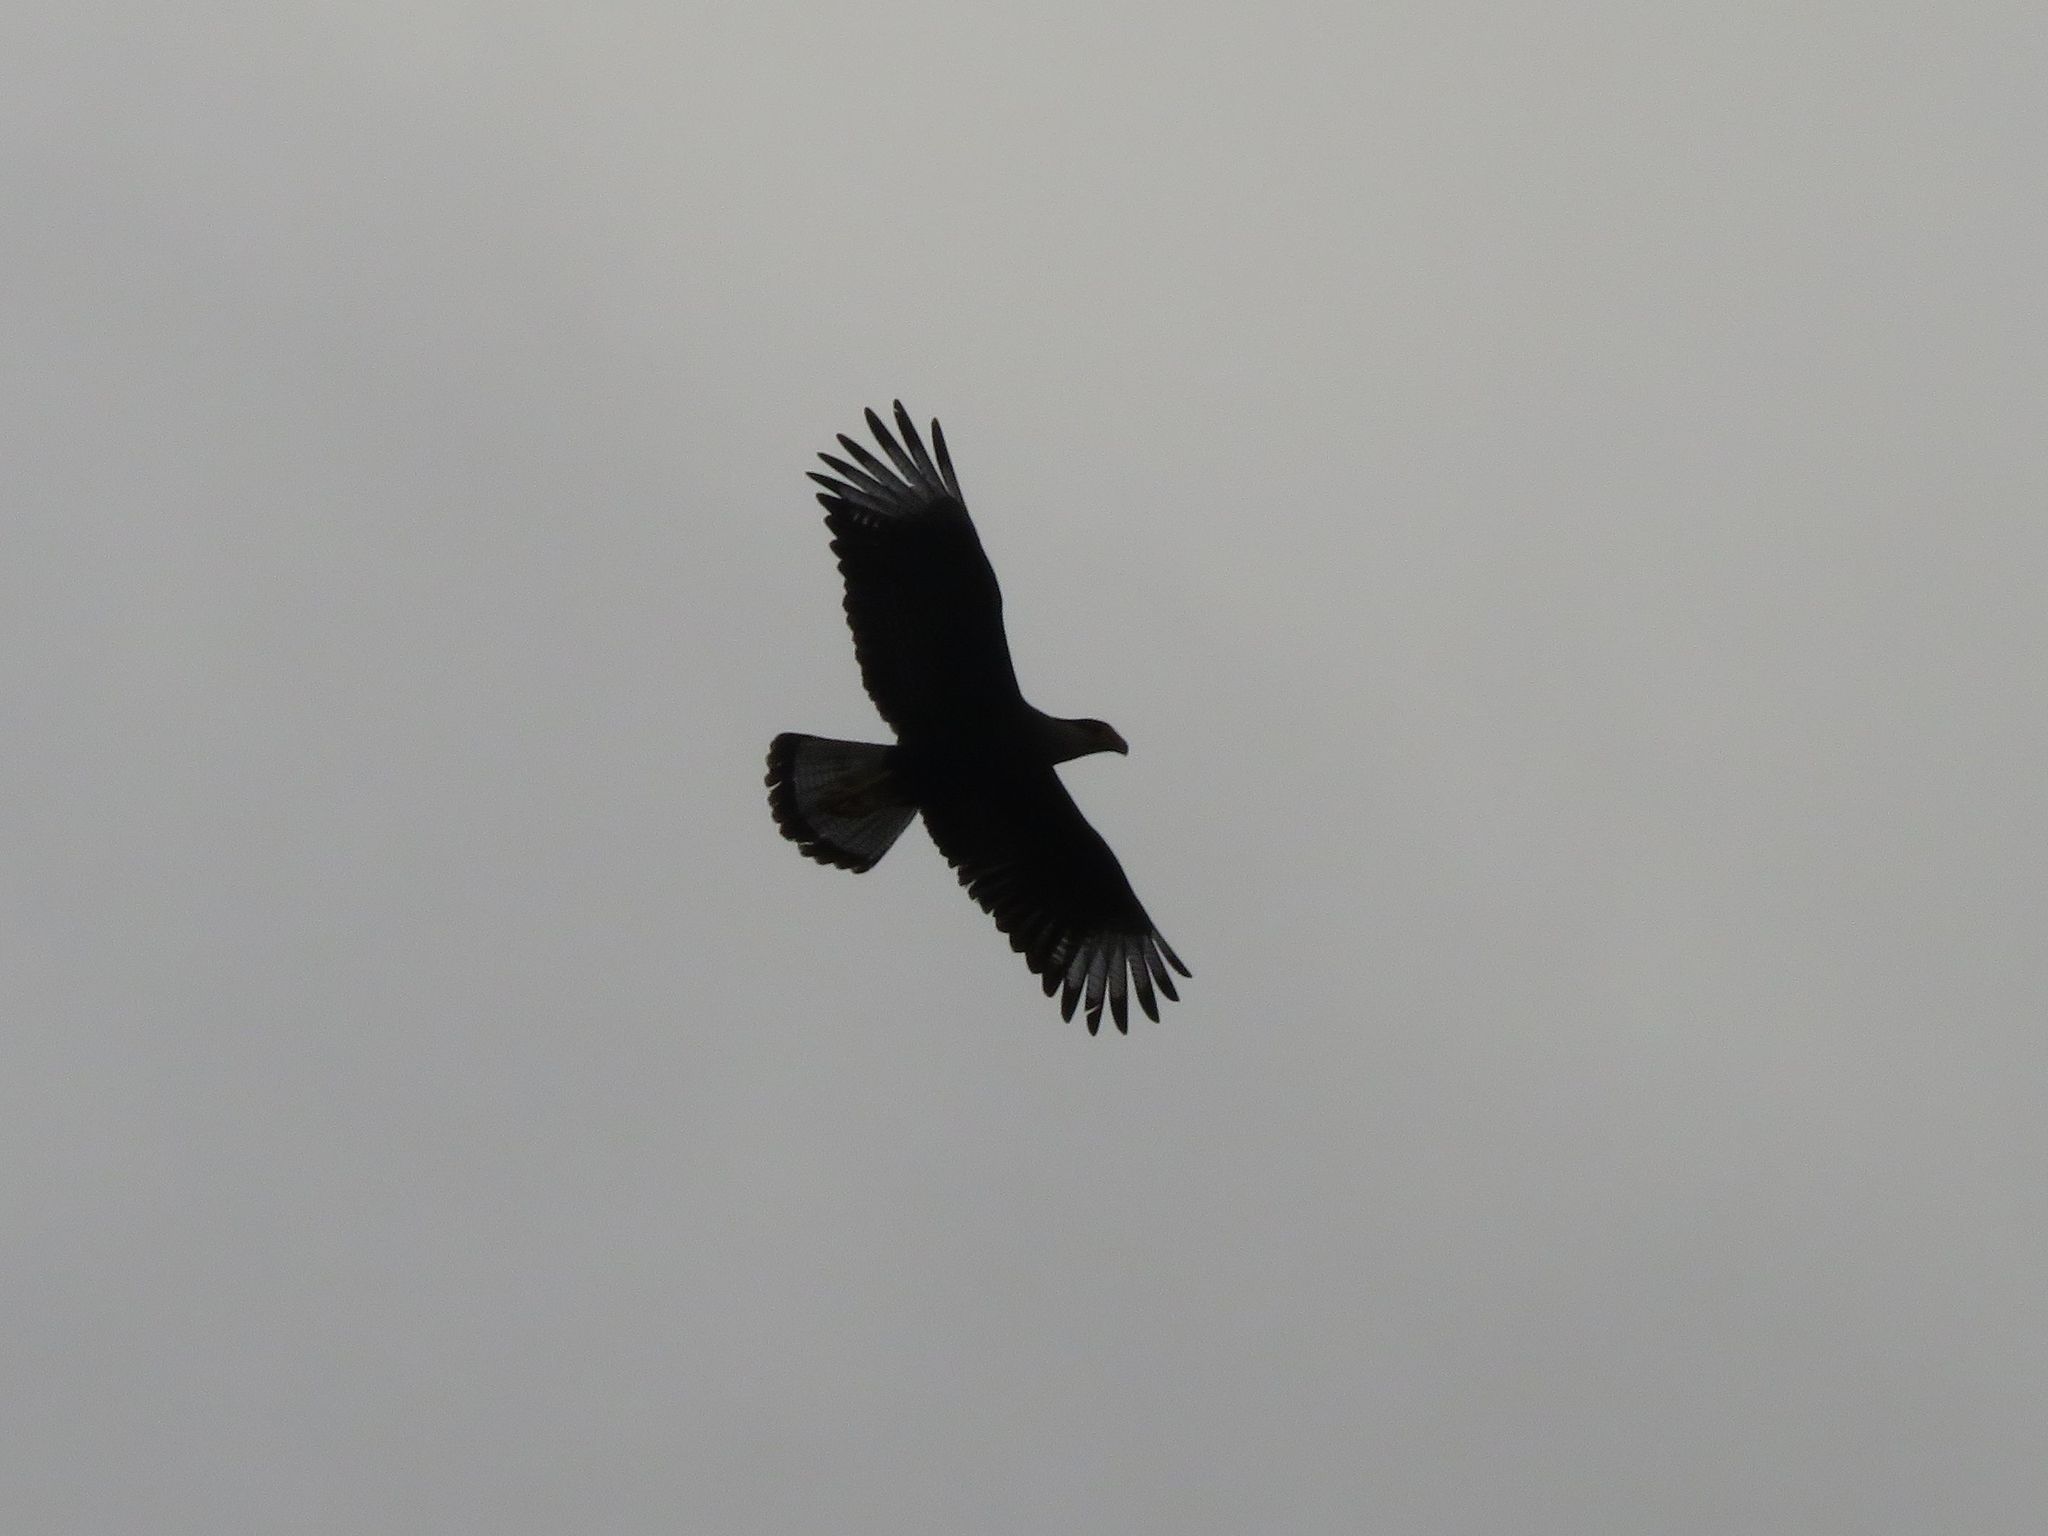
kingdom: Animalia
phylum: Chordata
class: Aves
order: Falconiformes
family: Falconidae
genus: Caracara
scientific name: Caracara plancus
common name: Southern caracara
